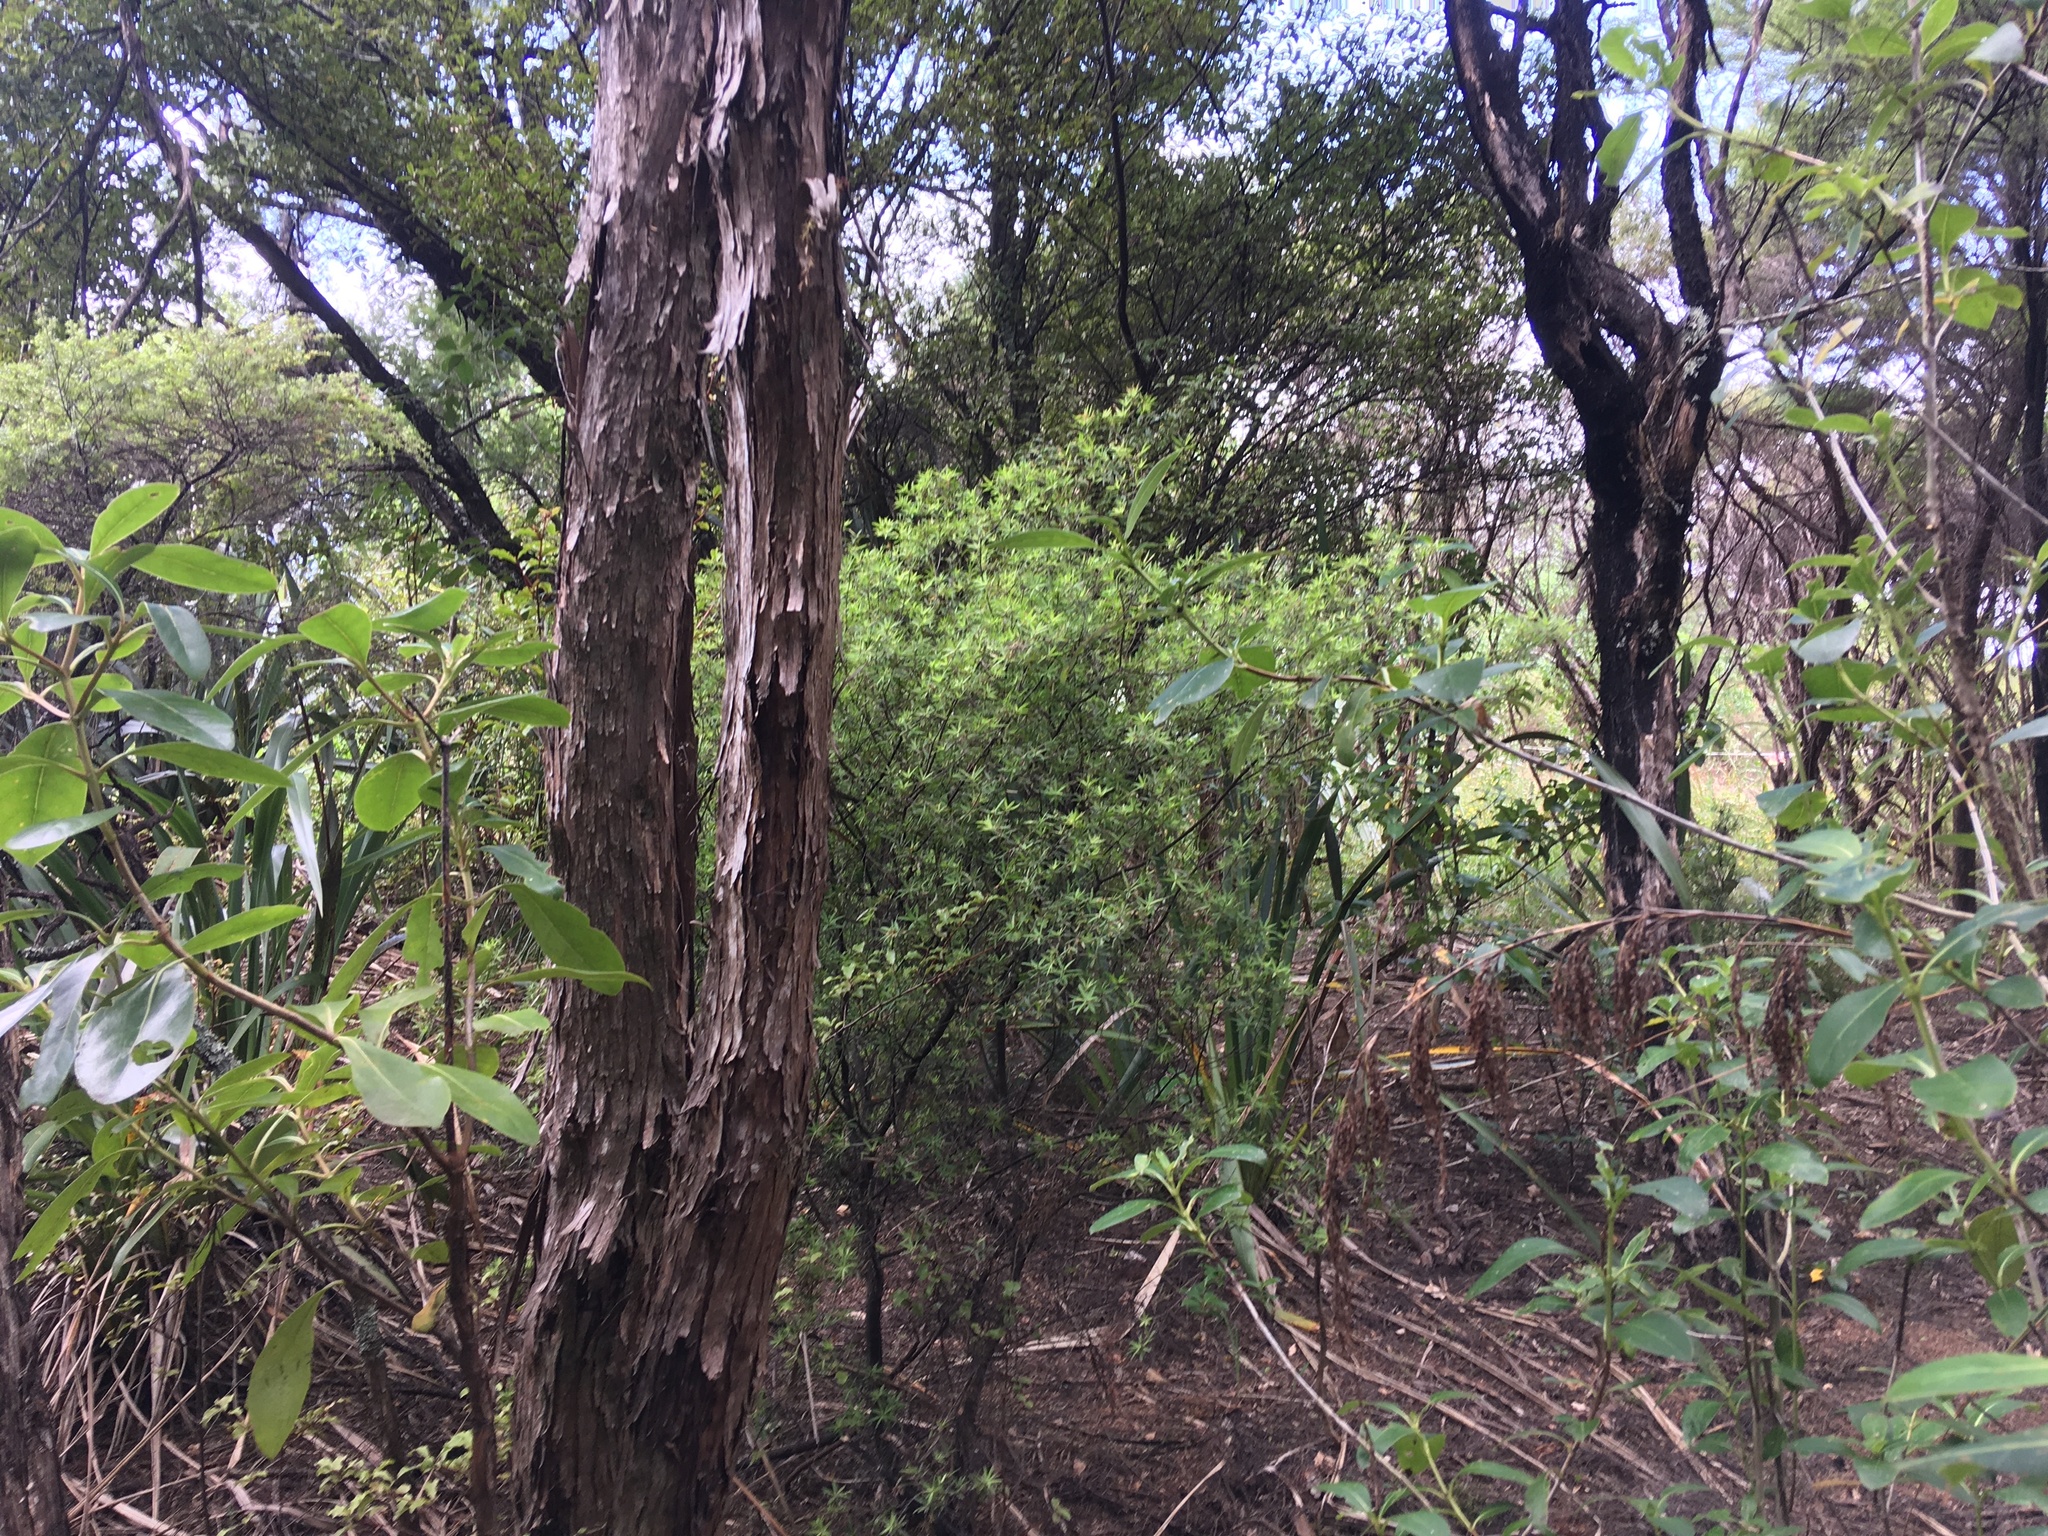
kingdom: Plantae
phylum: Tracheophyta
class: Magnoliopsida
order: Ericales
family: Ericaceae
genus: Leucopogon
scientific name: Leucopogon fasciculatus
